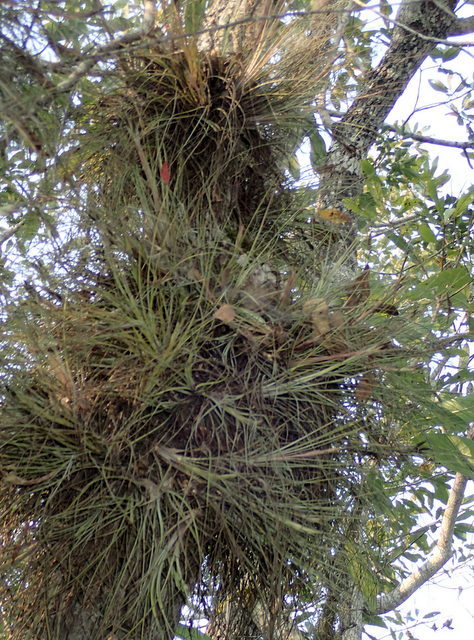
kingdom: Plantae
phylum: Tracheophyta
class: Liliopsida
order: Poales
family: Bromeliaceae
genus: Tillandsia
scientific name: Tillandsia bartramii
